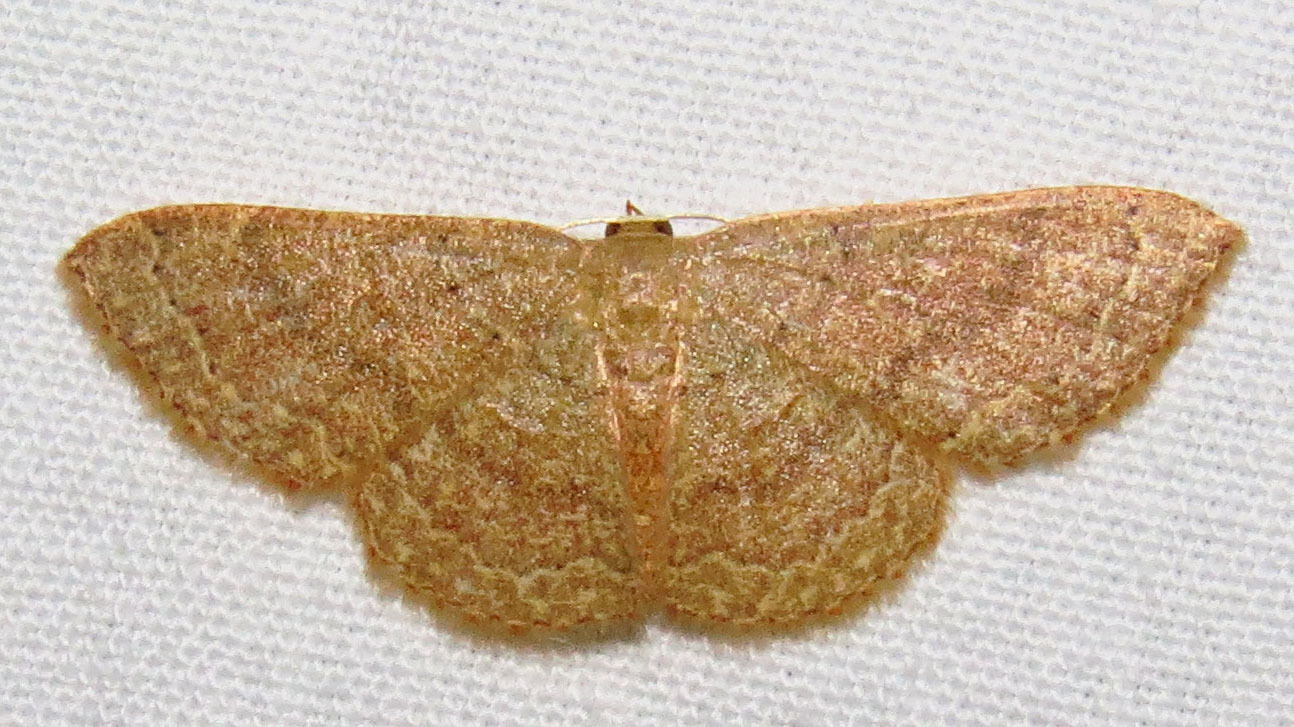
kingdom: Animalia
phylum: Arthropoda
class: Insecta
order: Lepidoptera
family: Geometridae
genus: Pleuroprucha
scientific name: Pleuroprucha insulsaria
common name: Common tan wave
